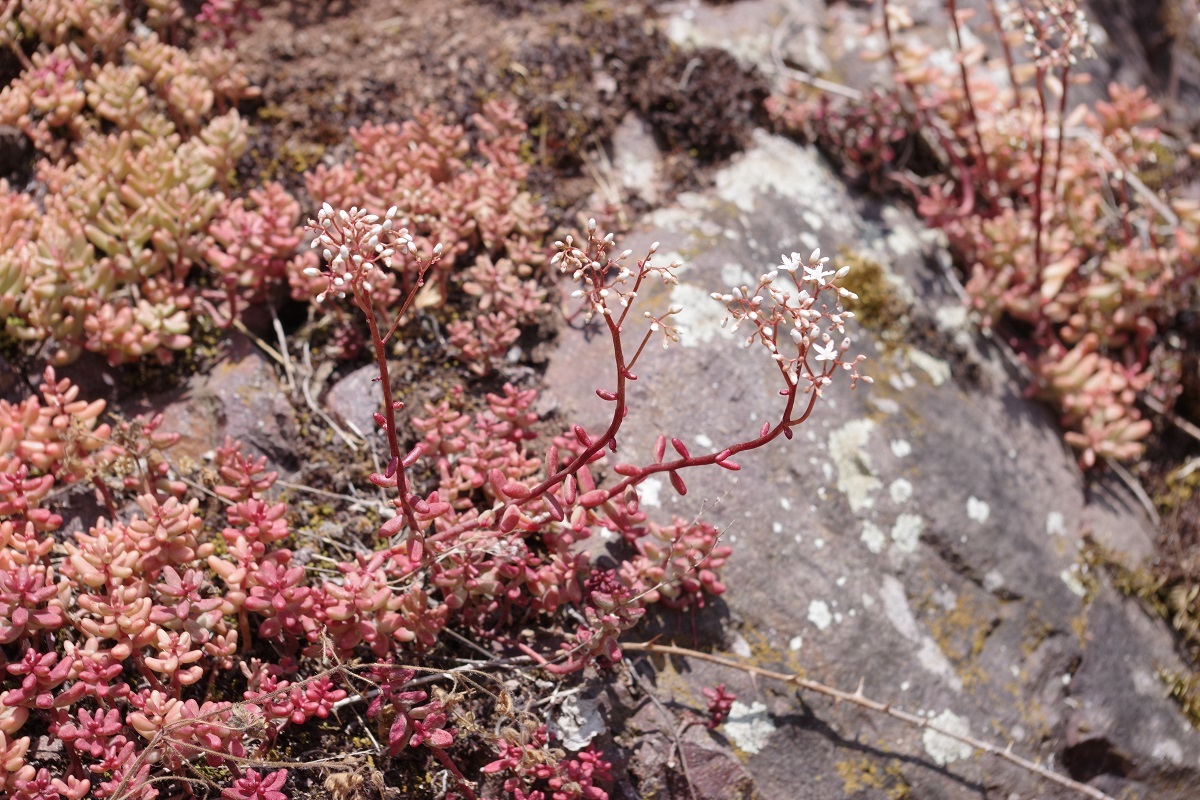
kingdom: Plantae
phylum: Tracheophyta
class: Magnoliopsida
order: Saxifragales
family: Crassulaceae
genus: Sedum
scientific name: Sedum album
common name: White stonecrop
